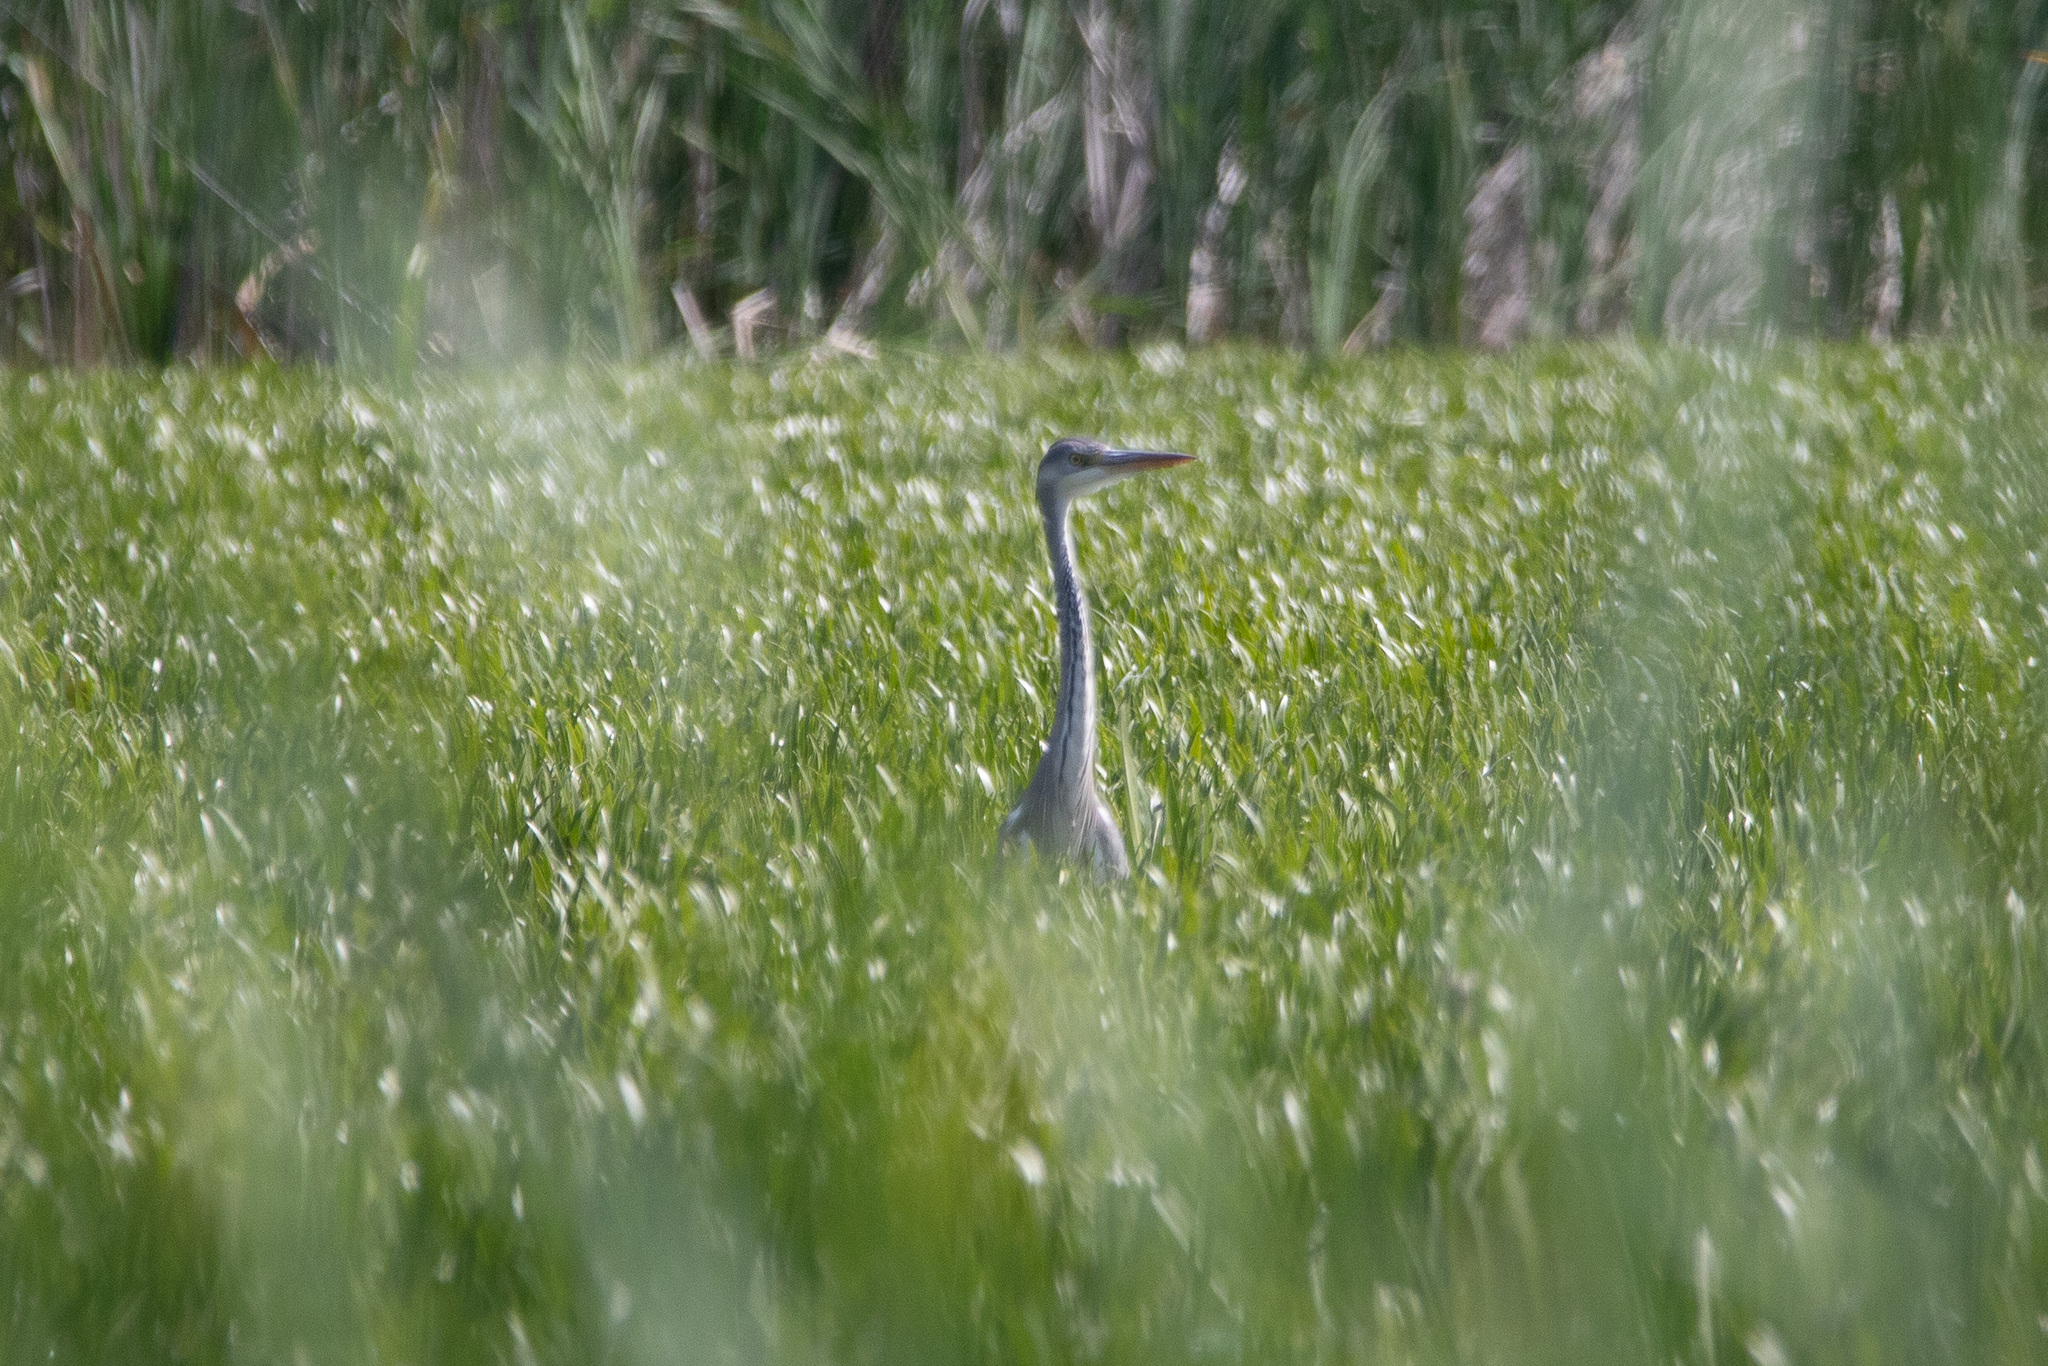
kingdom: Animalia
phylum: Chordata
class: Aves
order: Pelecaniformes
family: Ardeidae
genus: Ardea
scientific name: Ardea cinerea
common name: Grey heron
